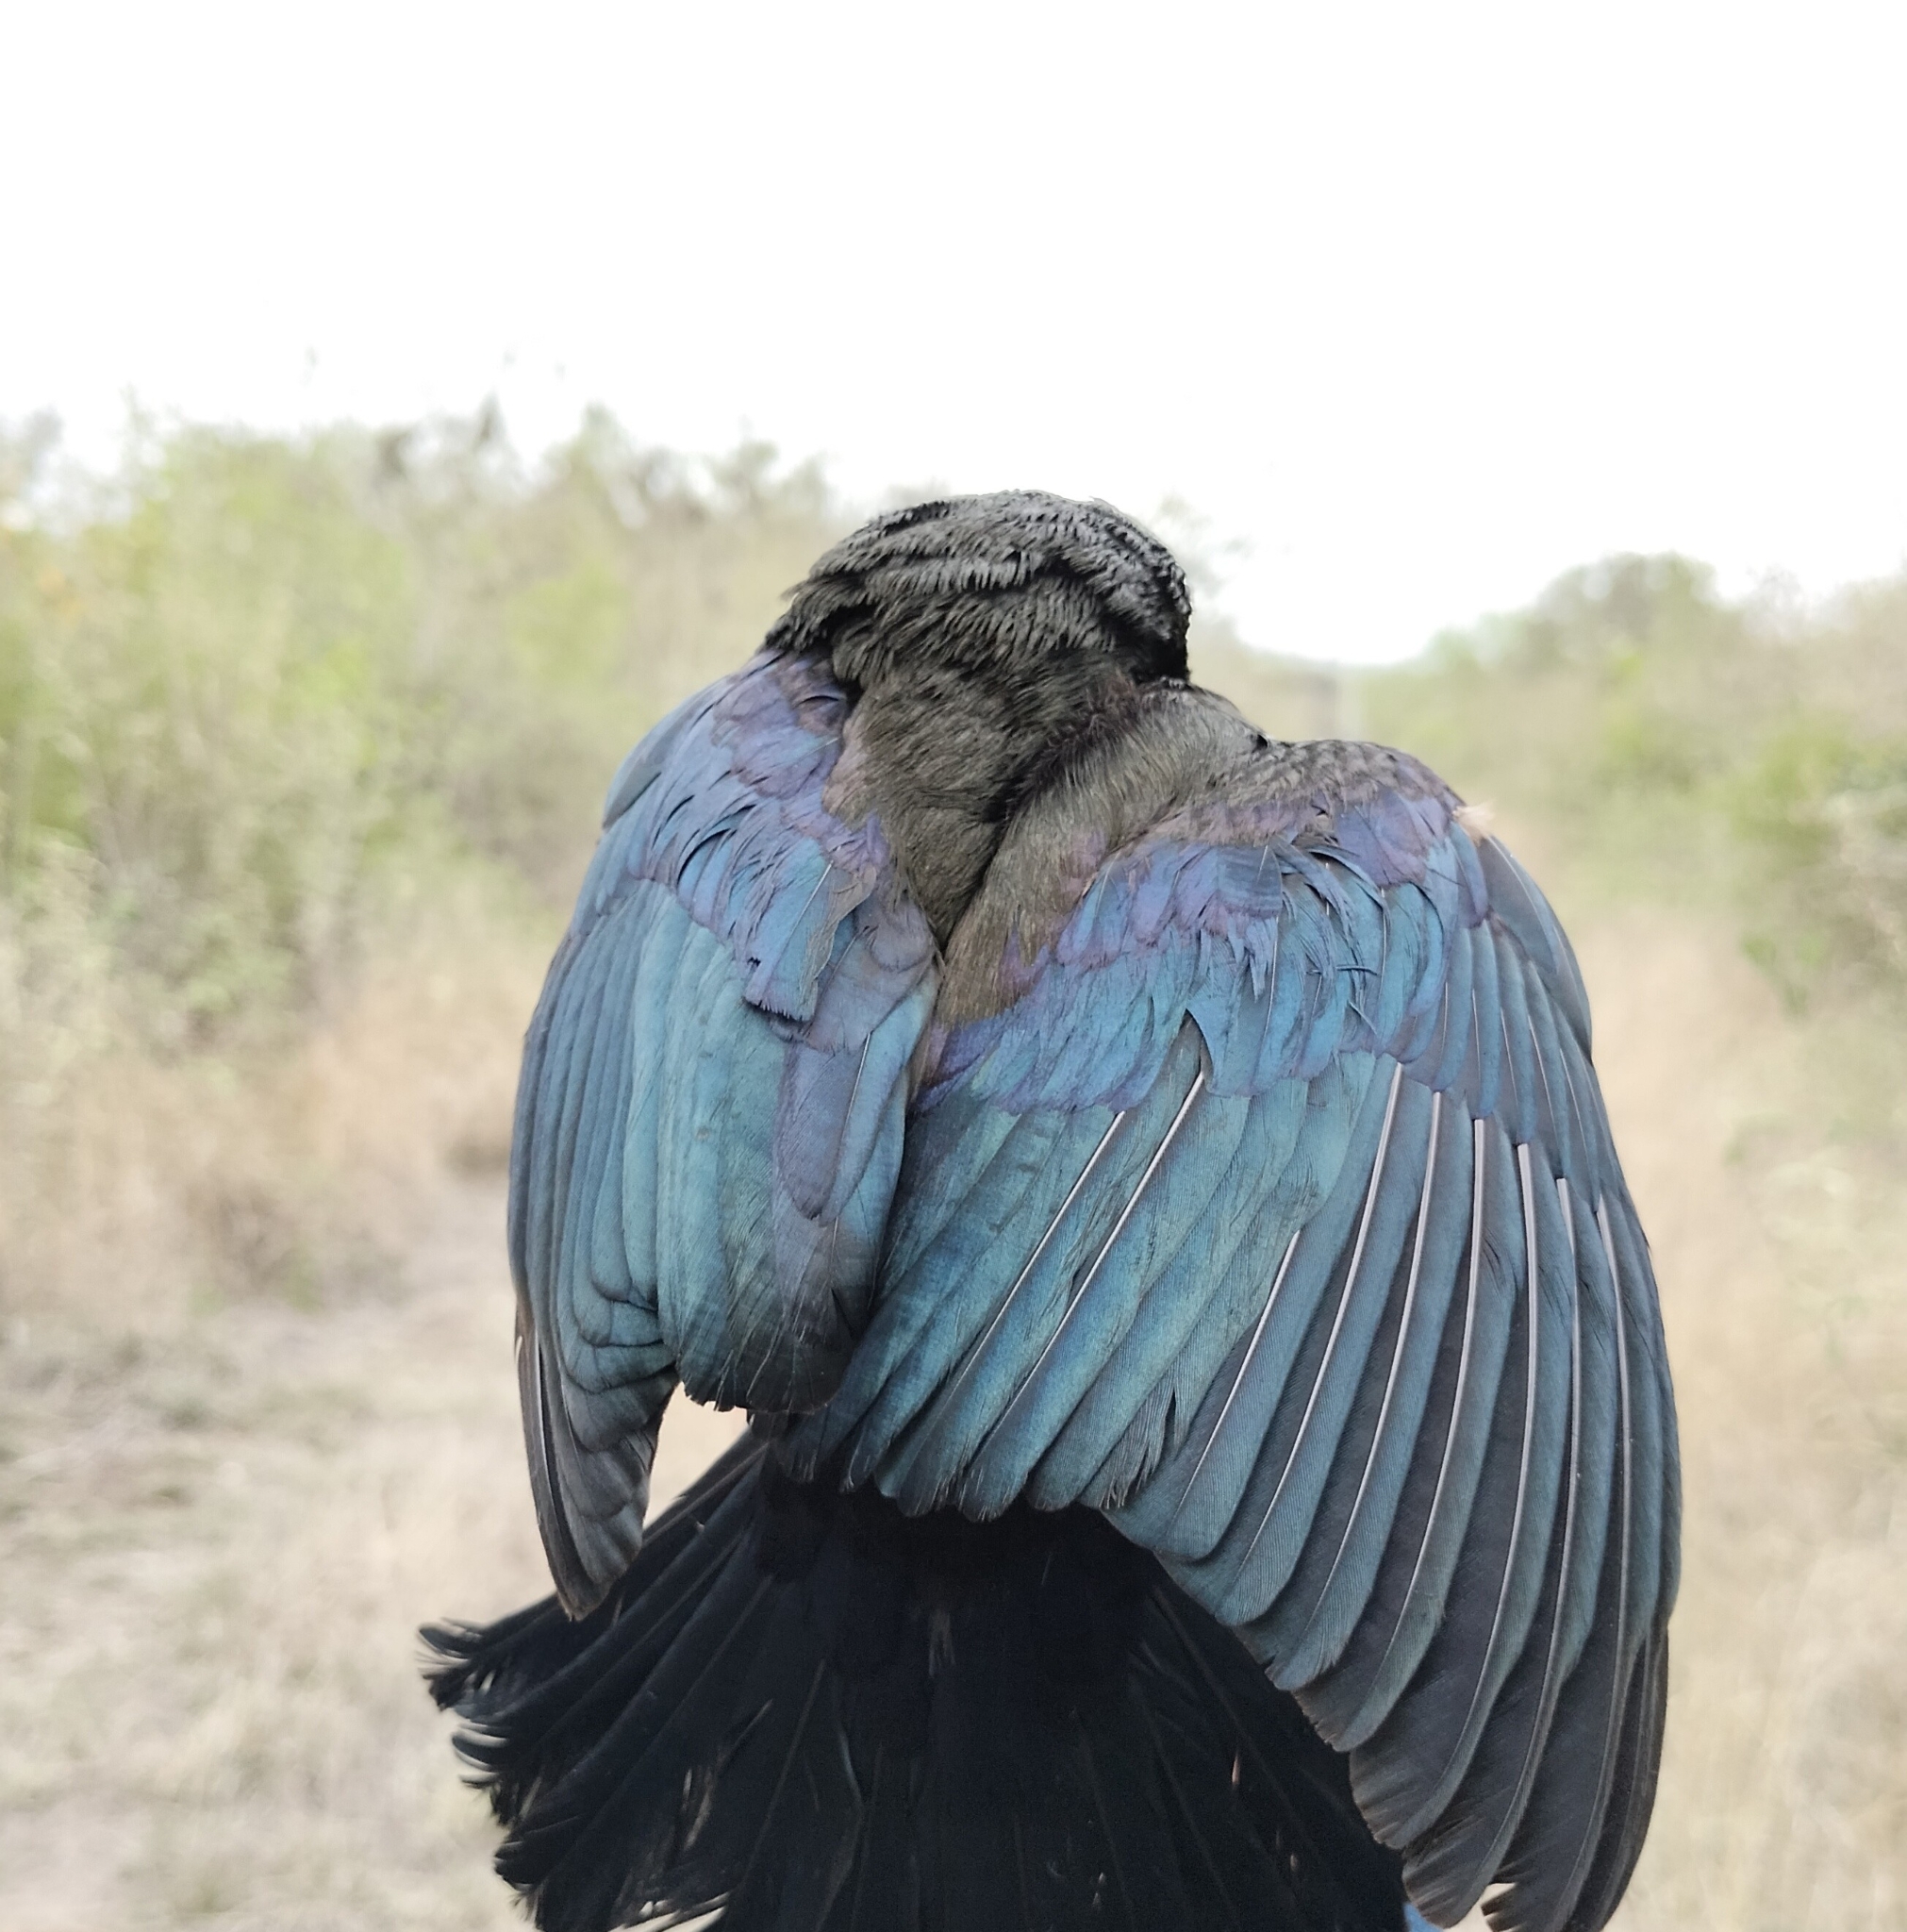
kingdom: Animalia
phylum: Chordata
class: Aves
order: Passeriformes
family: Icteridae
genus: Molothrus
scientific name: Molothrus aeneus
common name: Bronzed cowbird
